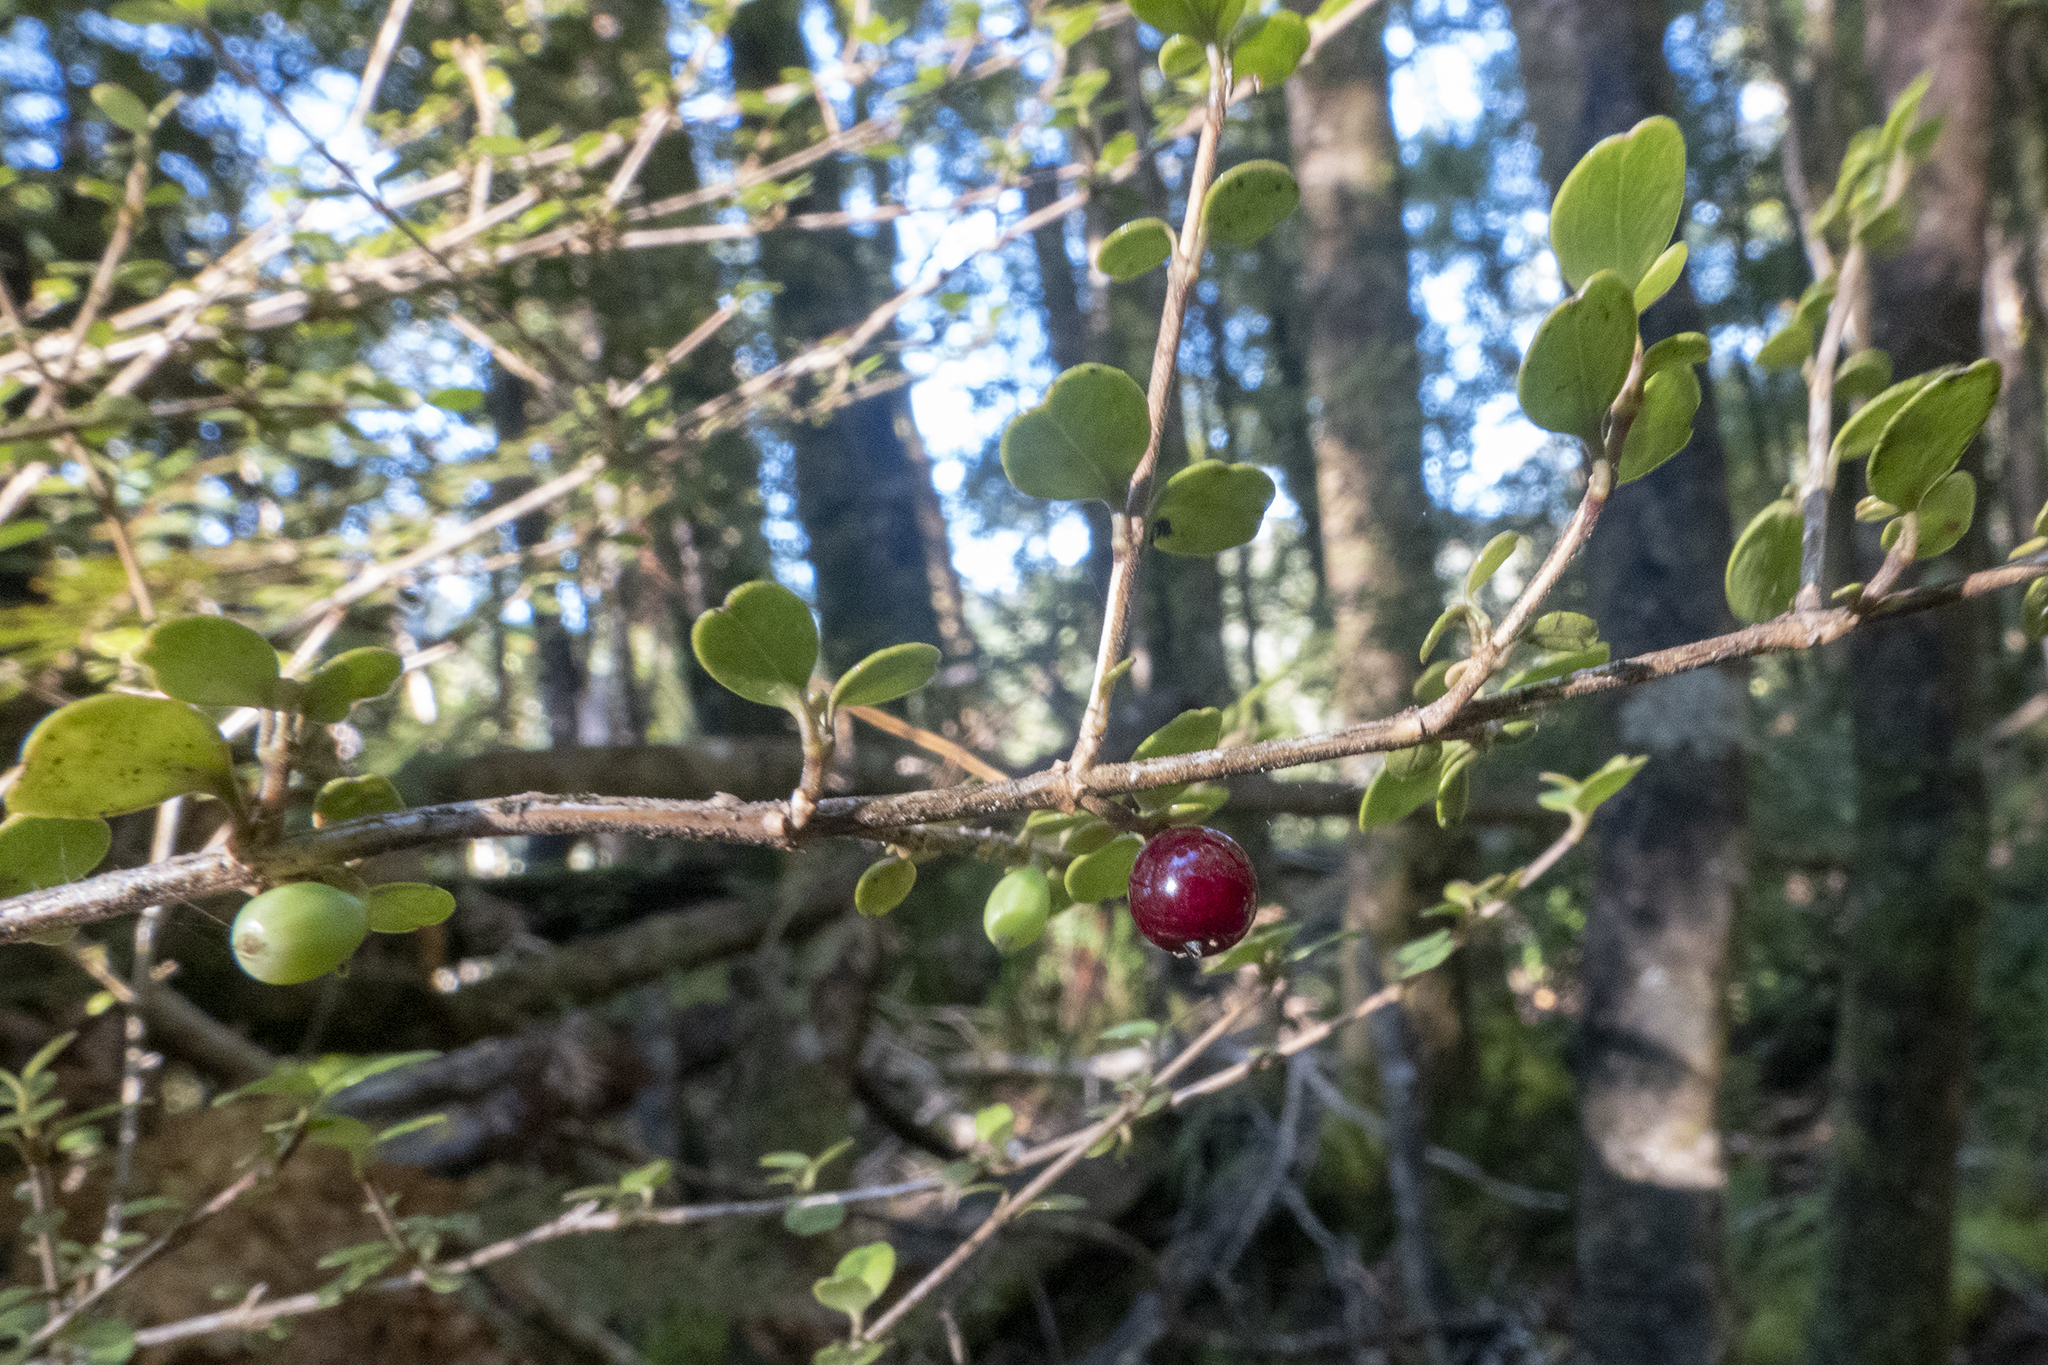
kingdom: Plantae
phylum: Tracheophyta
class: Magnoliopsida
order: Gentianales
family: Rubiaceae
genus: Coprosma
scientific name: Coprosma rhamnoides
